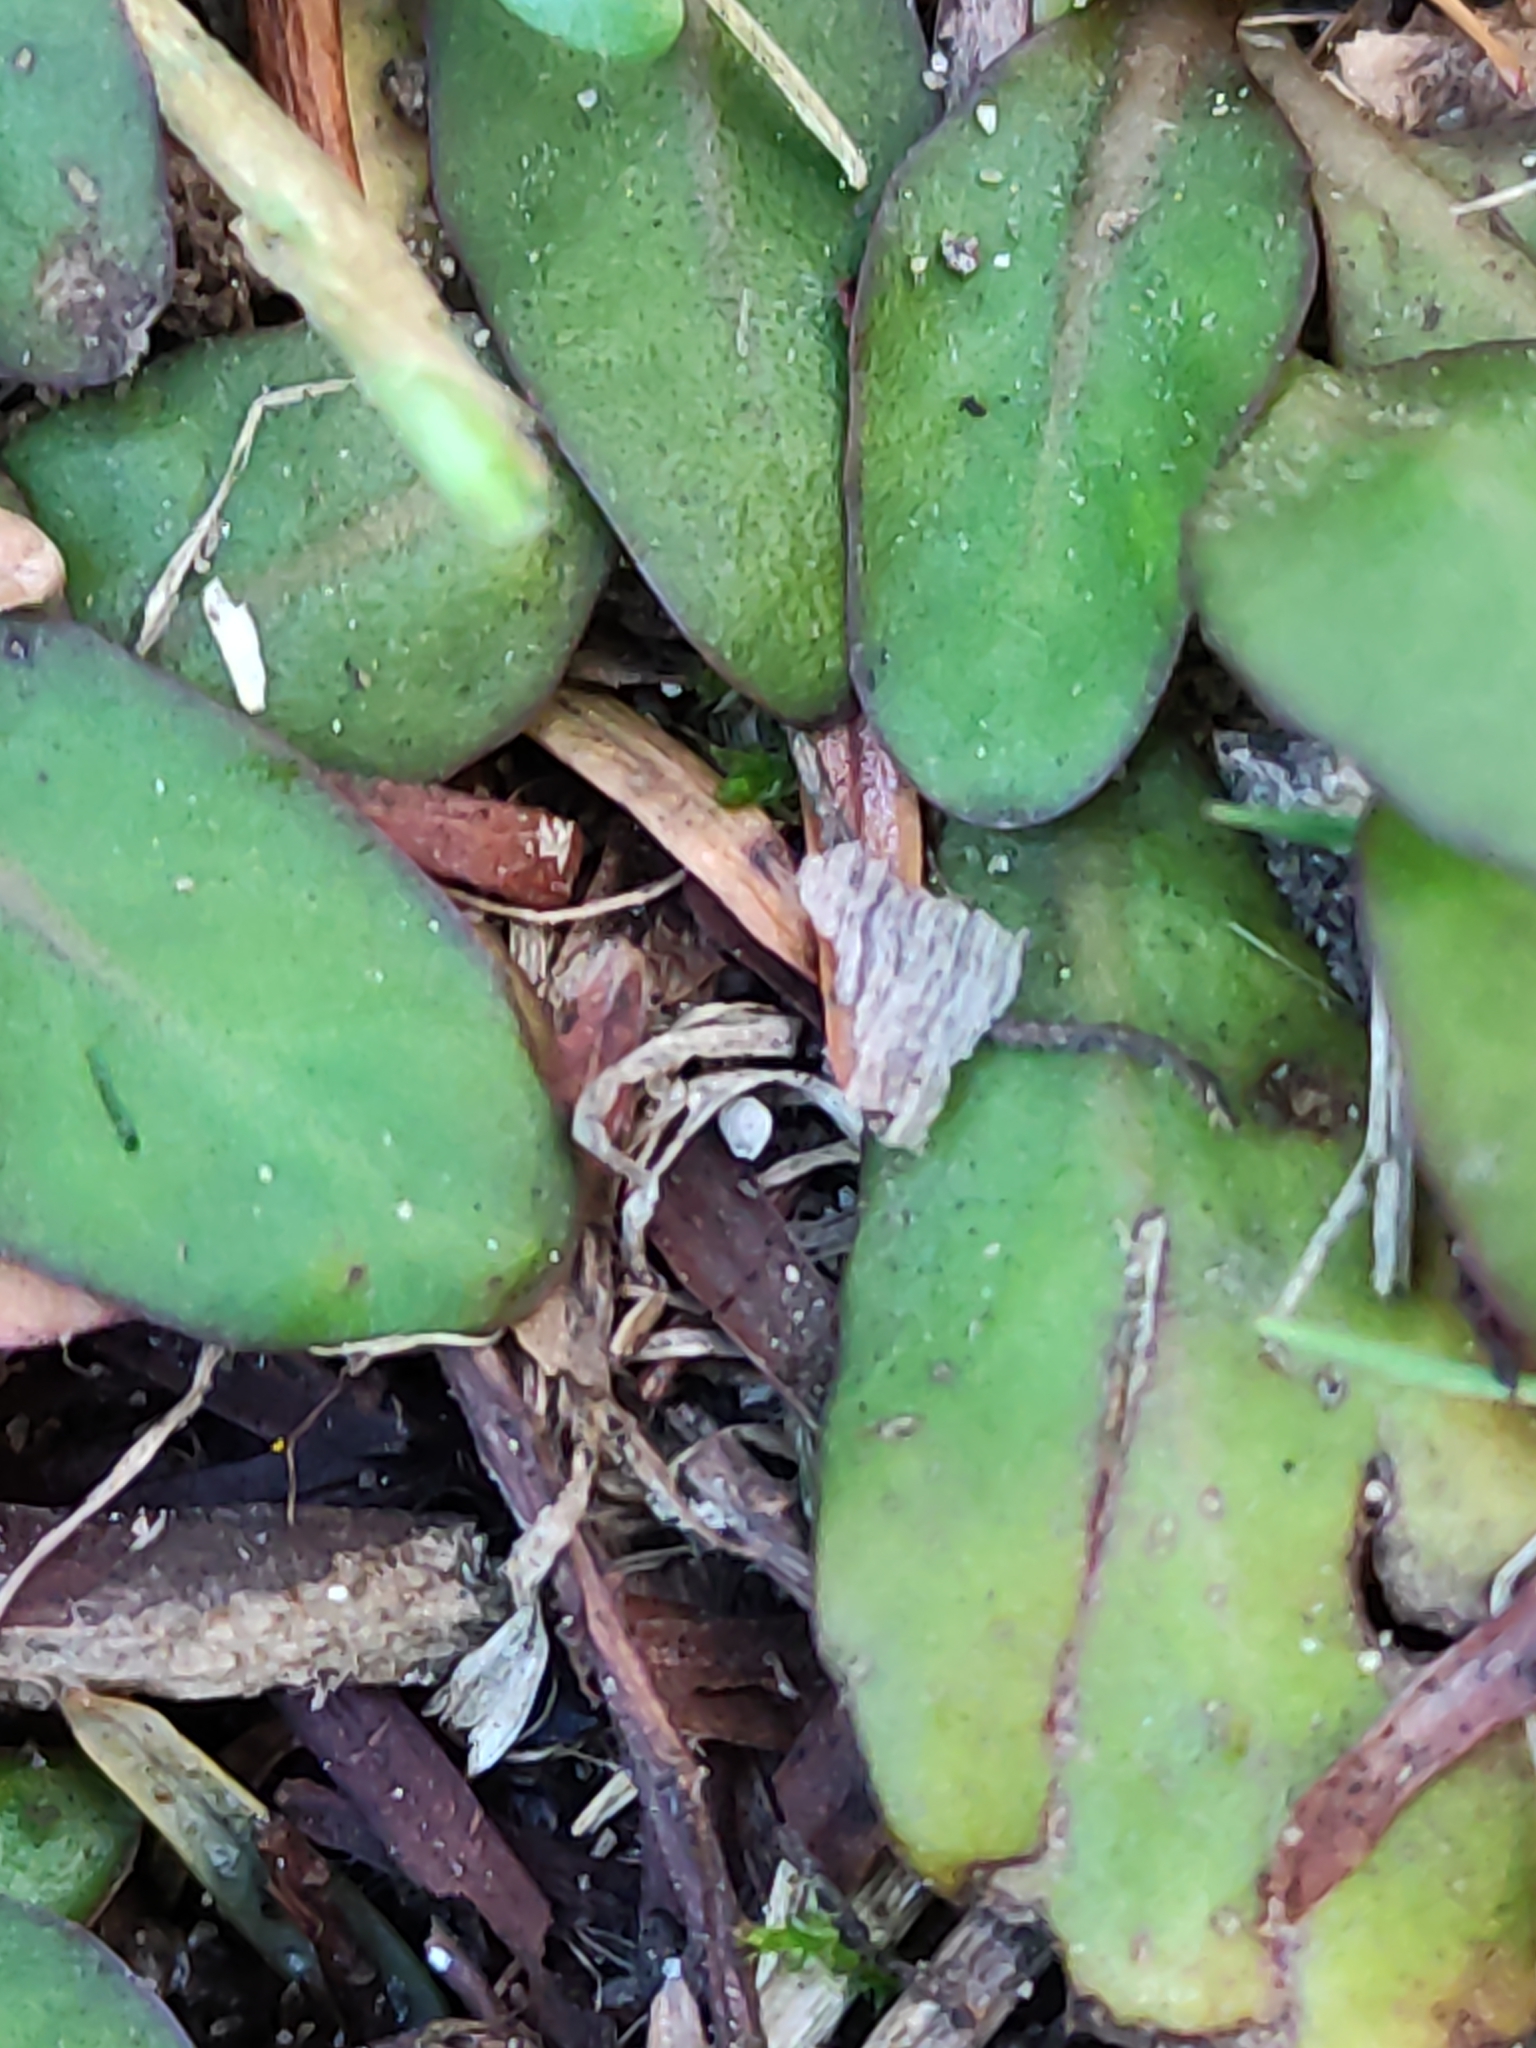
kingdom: Plantae
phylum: Tracheophyta
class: Magnoliopsida
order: Lamiales
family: Mazaceae
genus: Mazus
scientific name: Mazus novaezeelandiae
